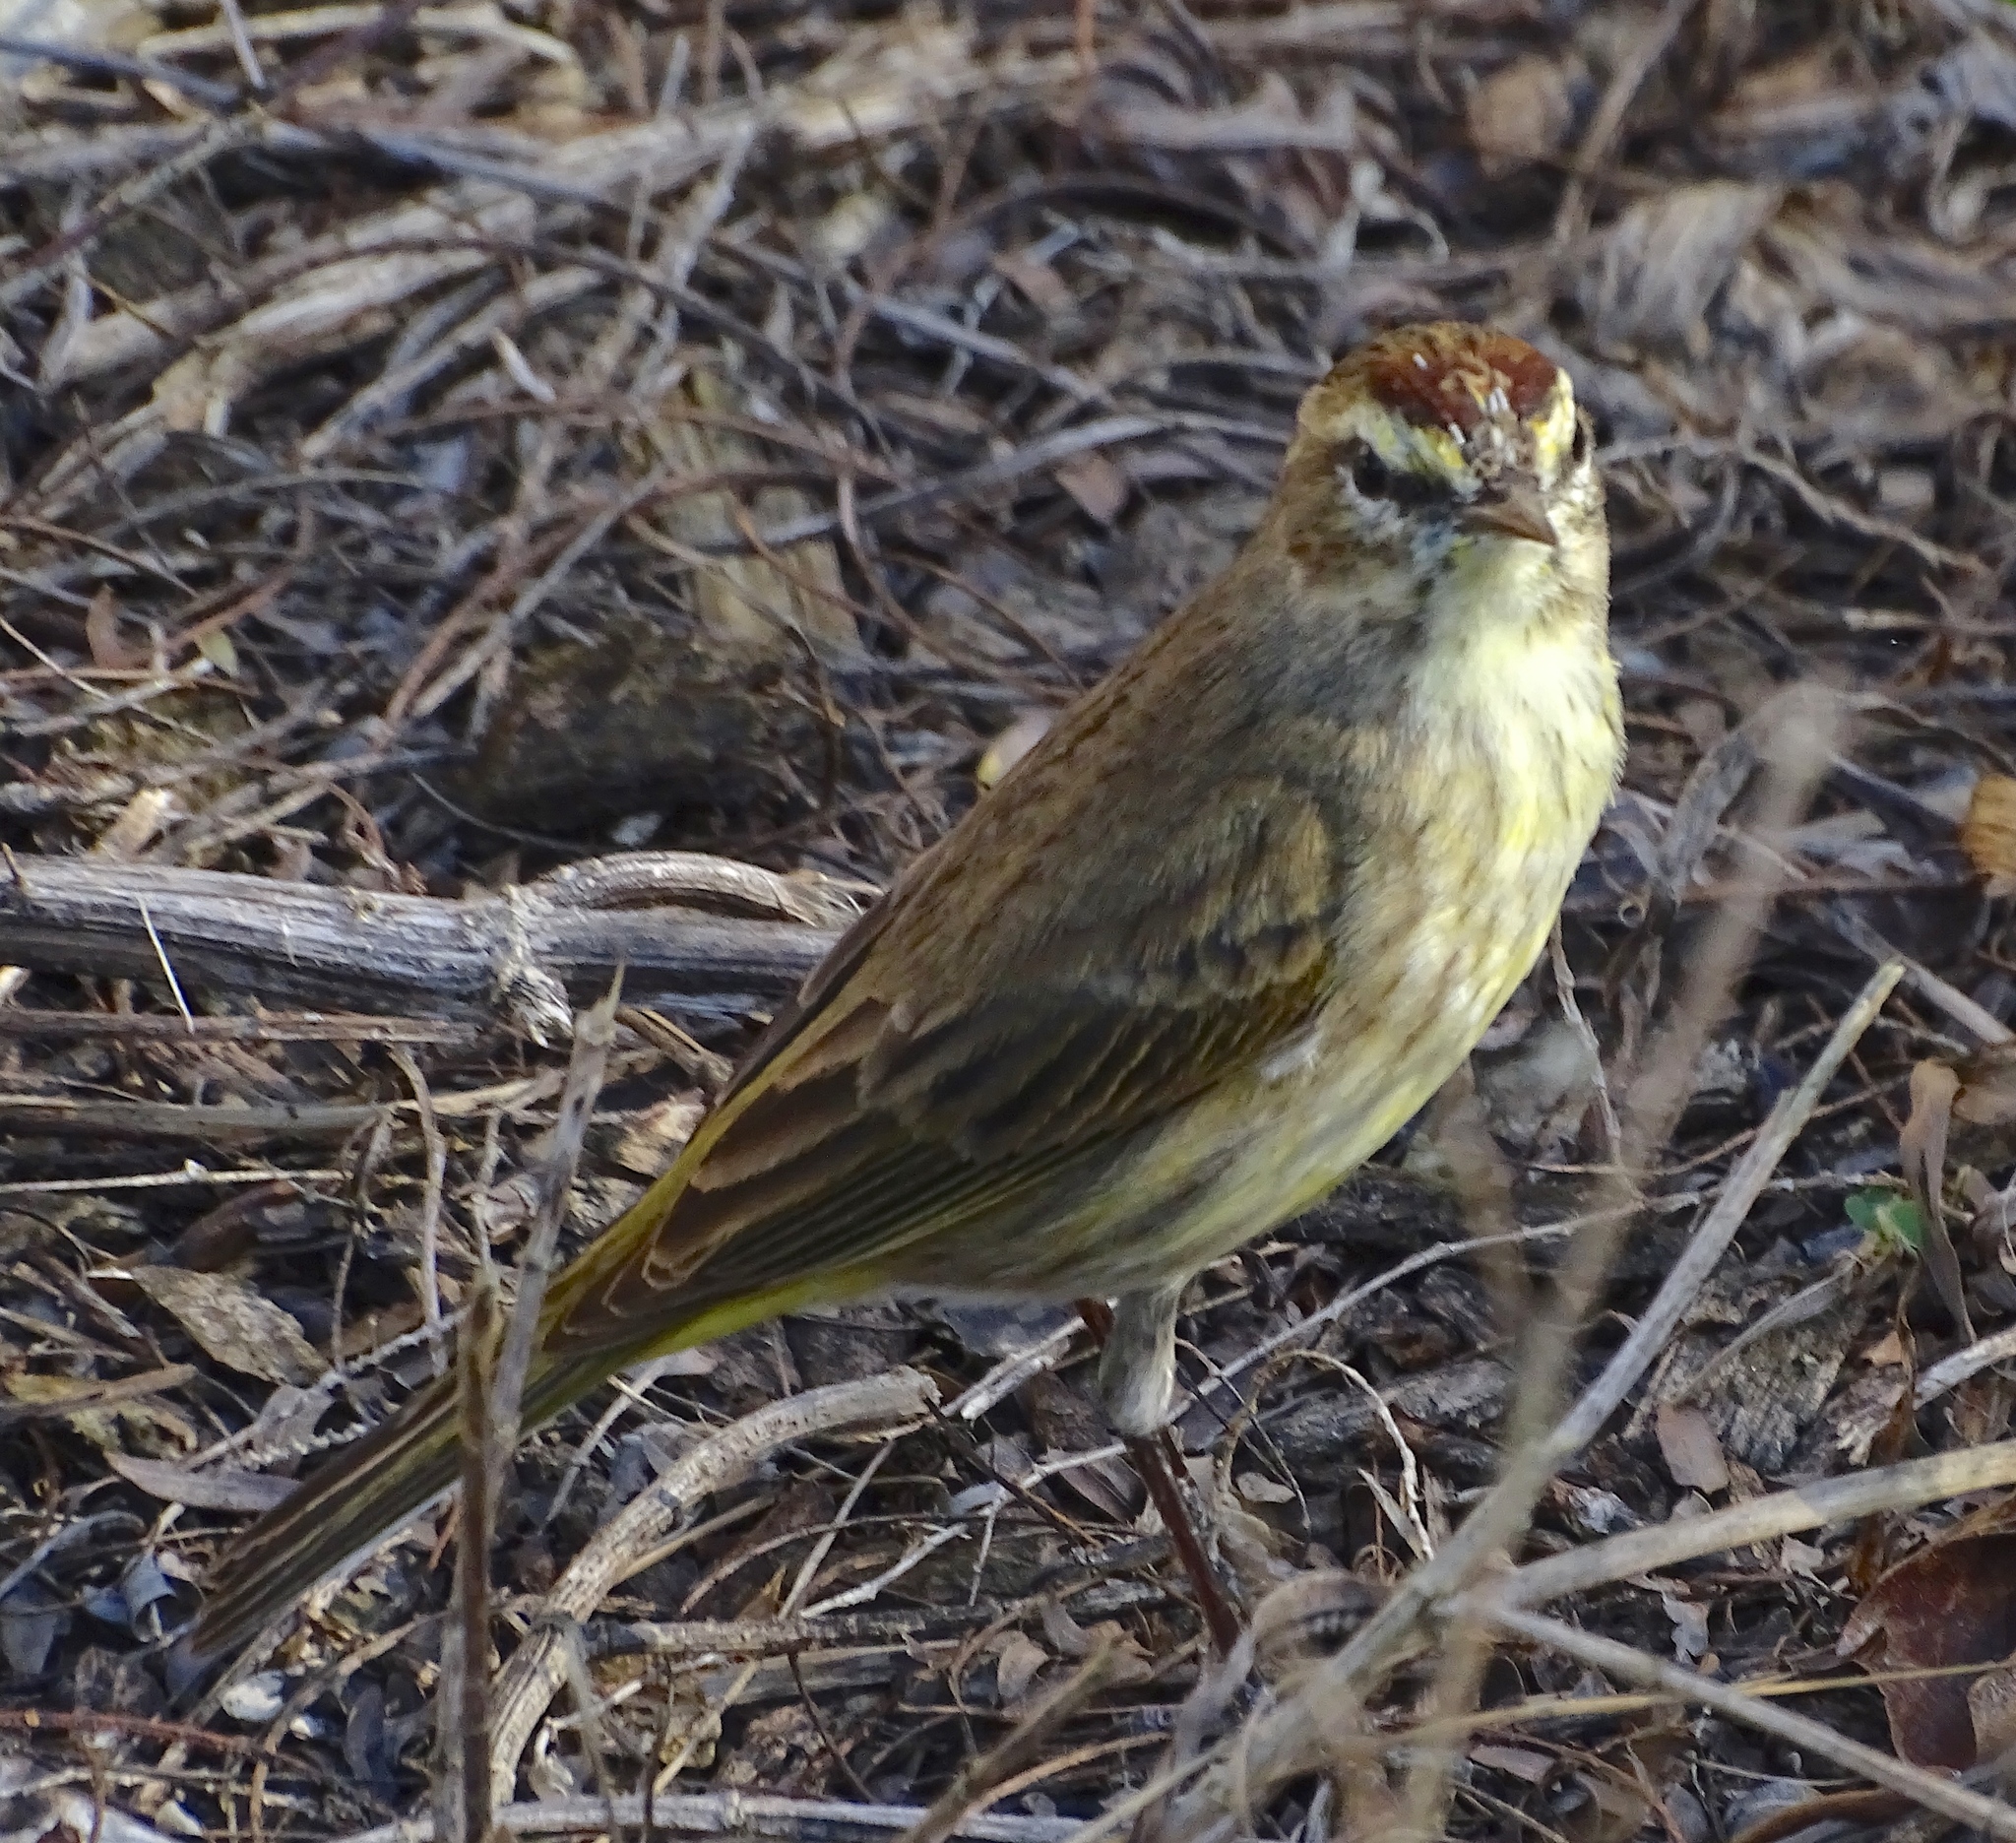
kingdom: Animalia
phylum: Chordata
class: Aves
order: Passeriformes
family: Parulidae
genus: Setophaga
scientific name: Setophaga palmarum
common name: Palm warbler
